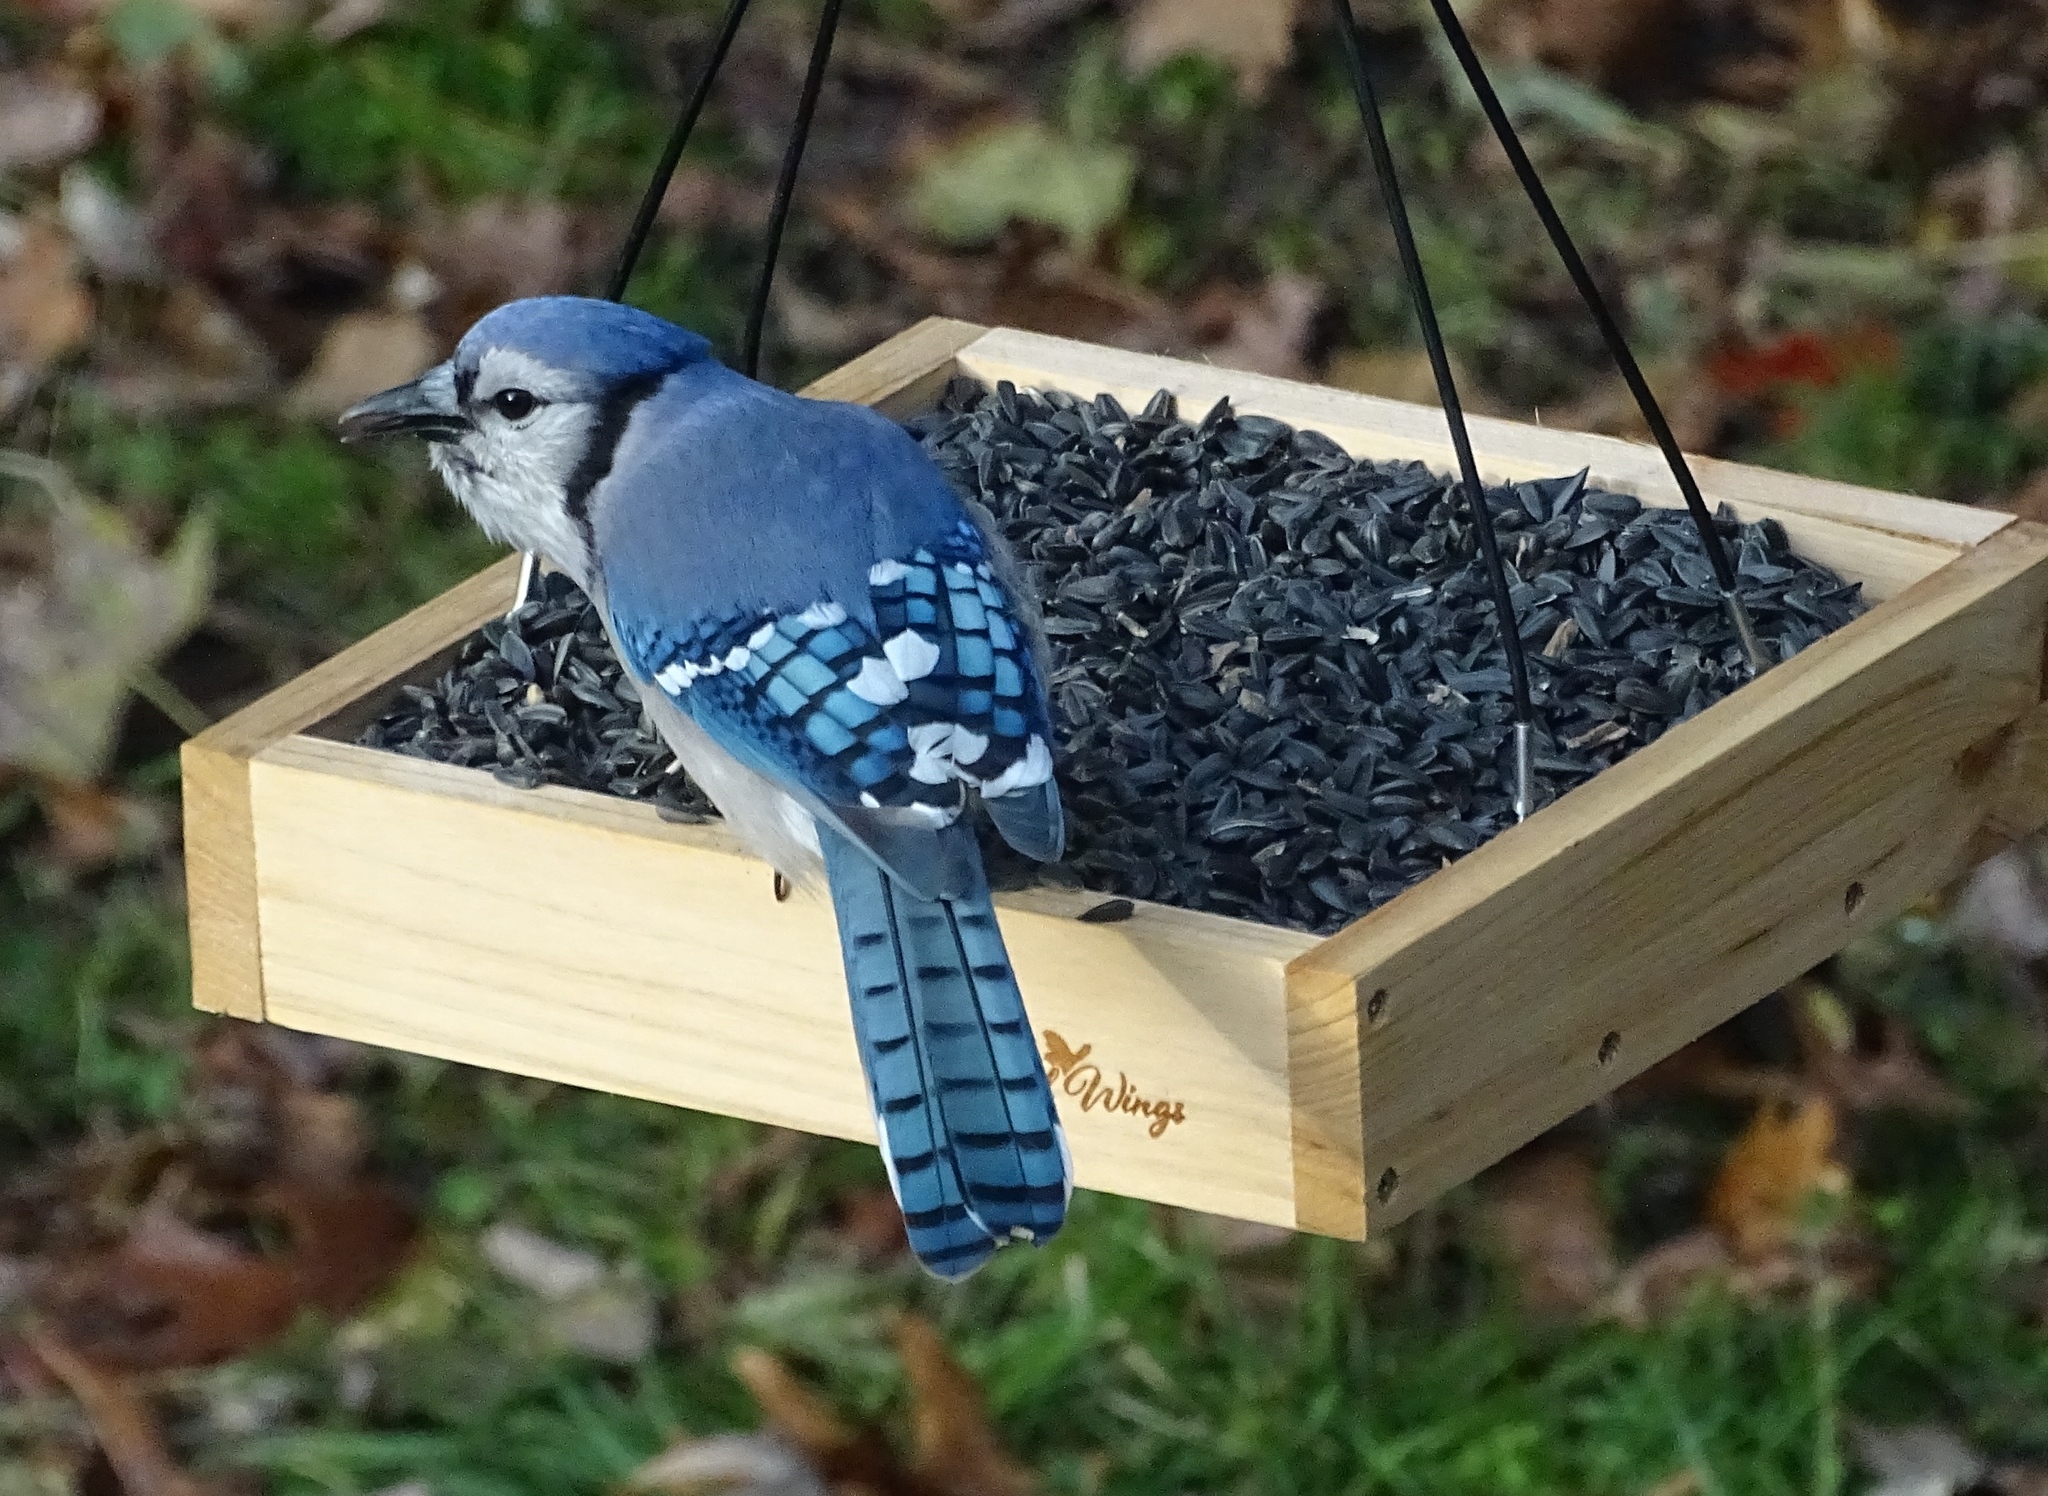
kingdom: Animalia
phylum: Chordata
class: Aves
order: Passeriformes
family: Corvidae
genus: Cyanocitta
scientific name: Cyanocitta cristata
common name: Blue jay
